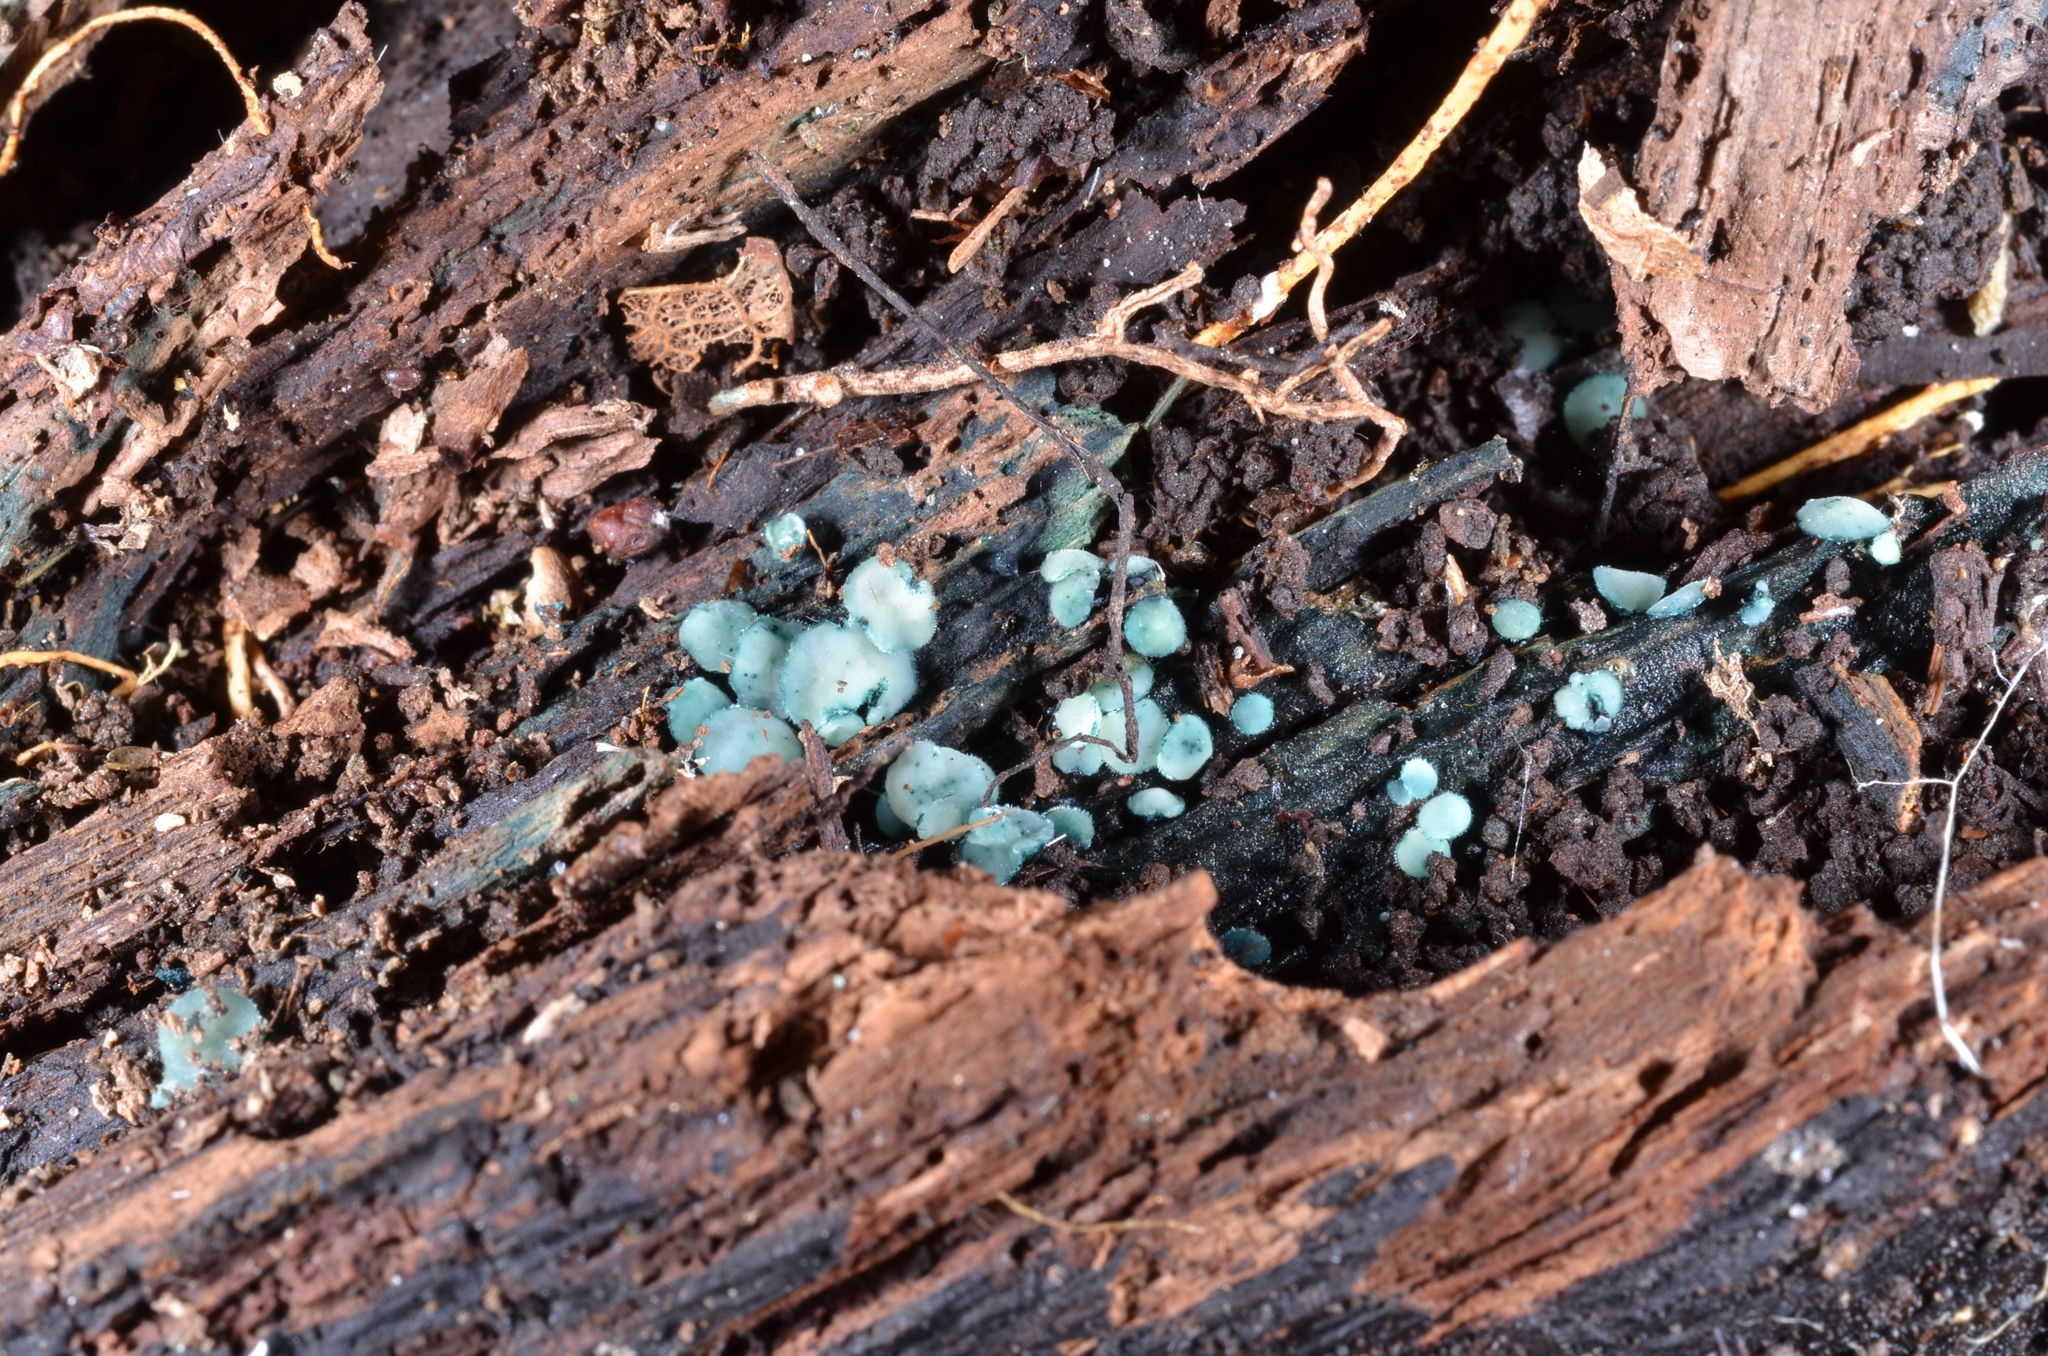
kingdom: Fungi
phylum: Ascomycota
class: Leotiomycetes
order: Helotiales
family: Hyaloscyphaceae
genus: Aeruginoscyphus
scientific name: Aeruginoscyphus sericeus
